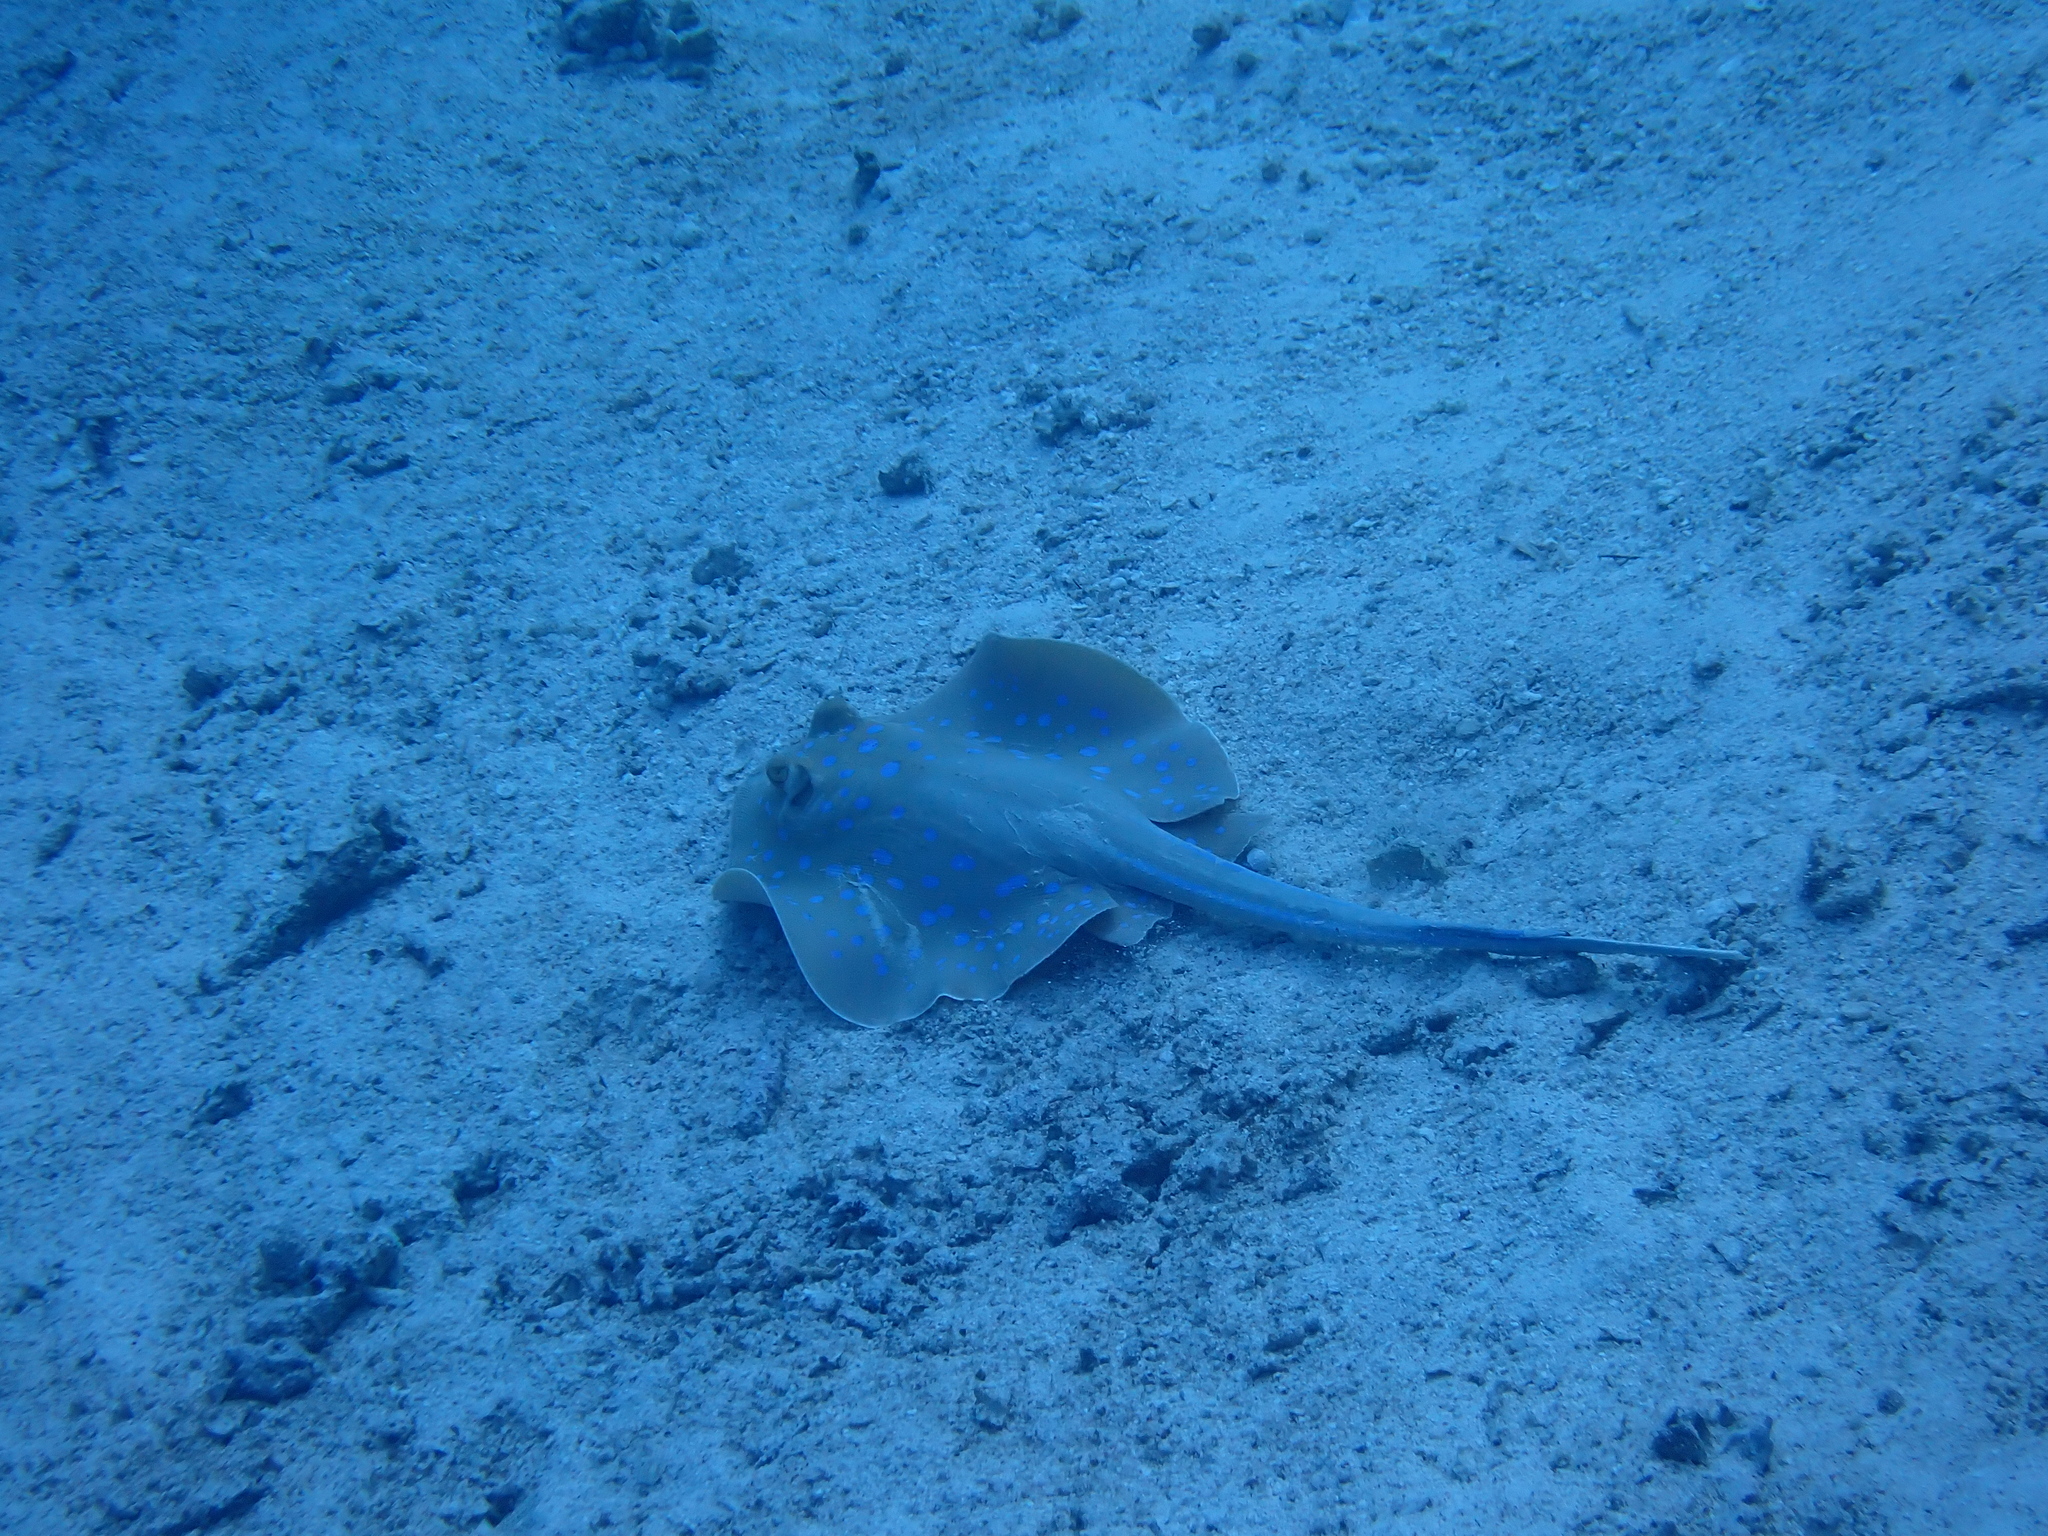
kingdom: Animalia
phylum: Chordata
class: Elasmobranchii
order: Myliobatiformes
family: Dasyatidae
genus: Taeniura
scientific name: Taeniura lymma
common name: Bluespotted ribbontail ray
